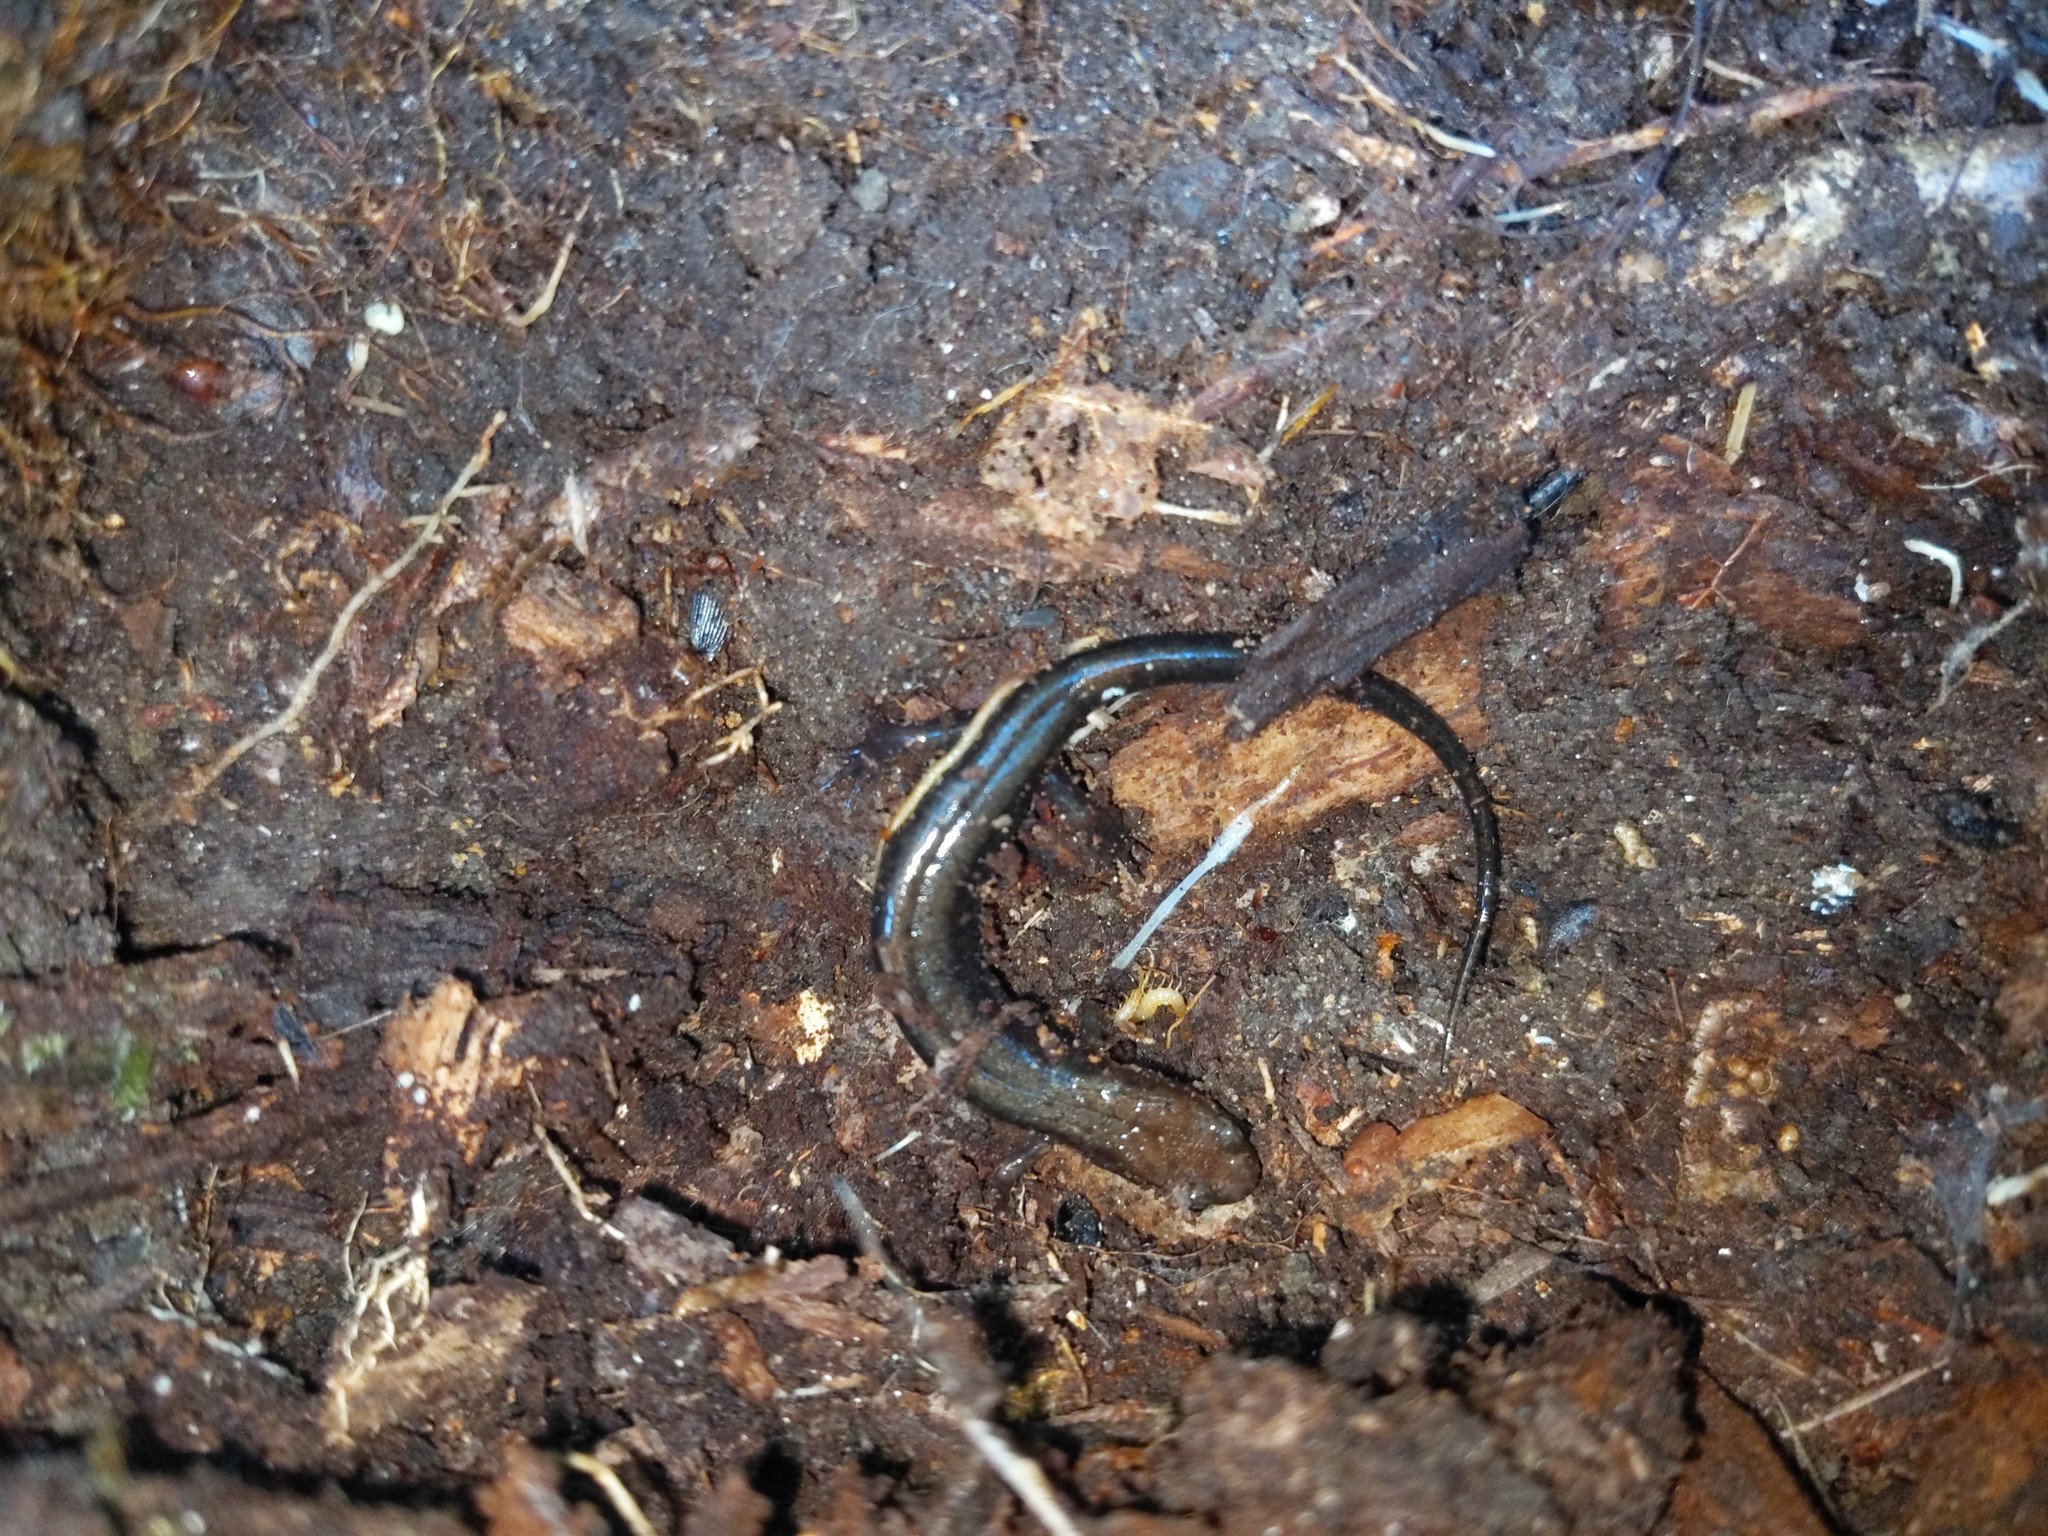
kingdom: Animalia
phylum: Chordata
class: Amphibia
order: Caudata
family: Plethodontidae
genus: Desmognathus
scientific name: Desmognathus ochrophaeus
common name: Allegheny mountain dusky salamander
